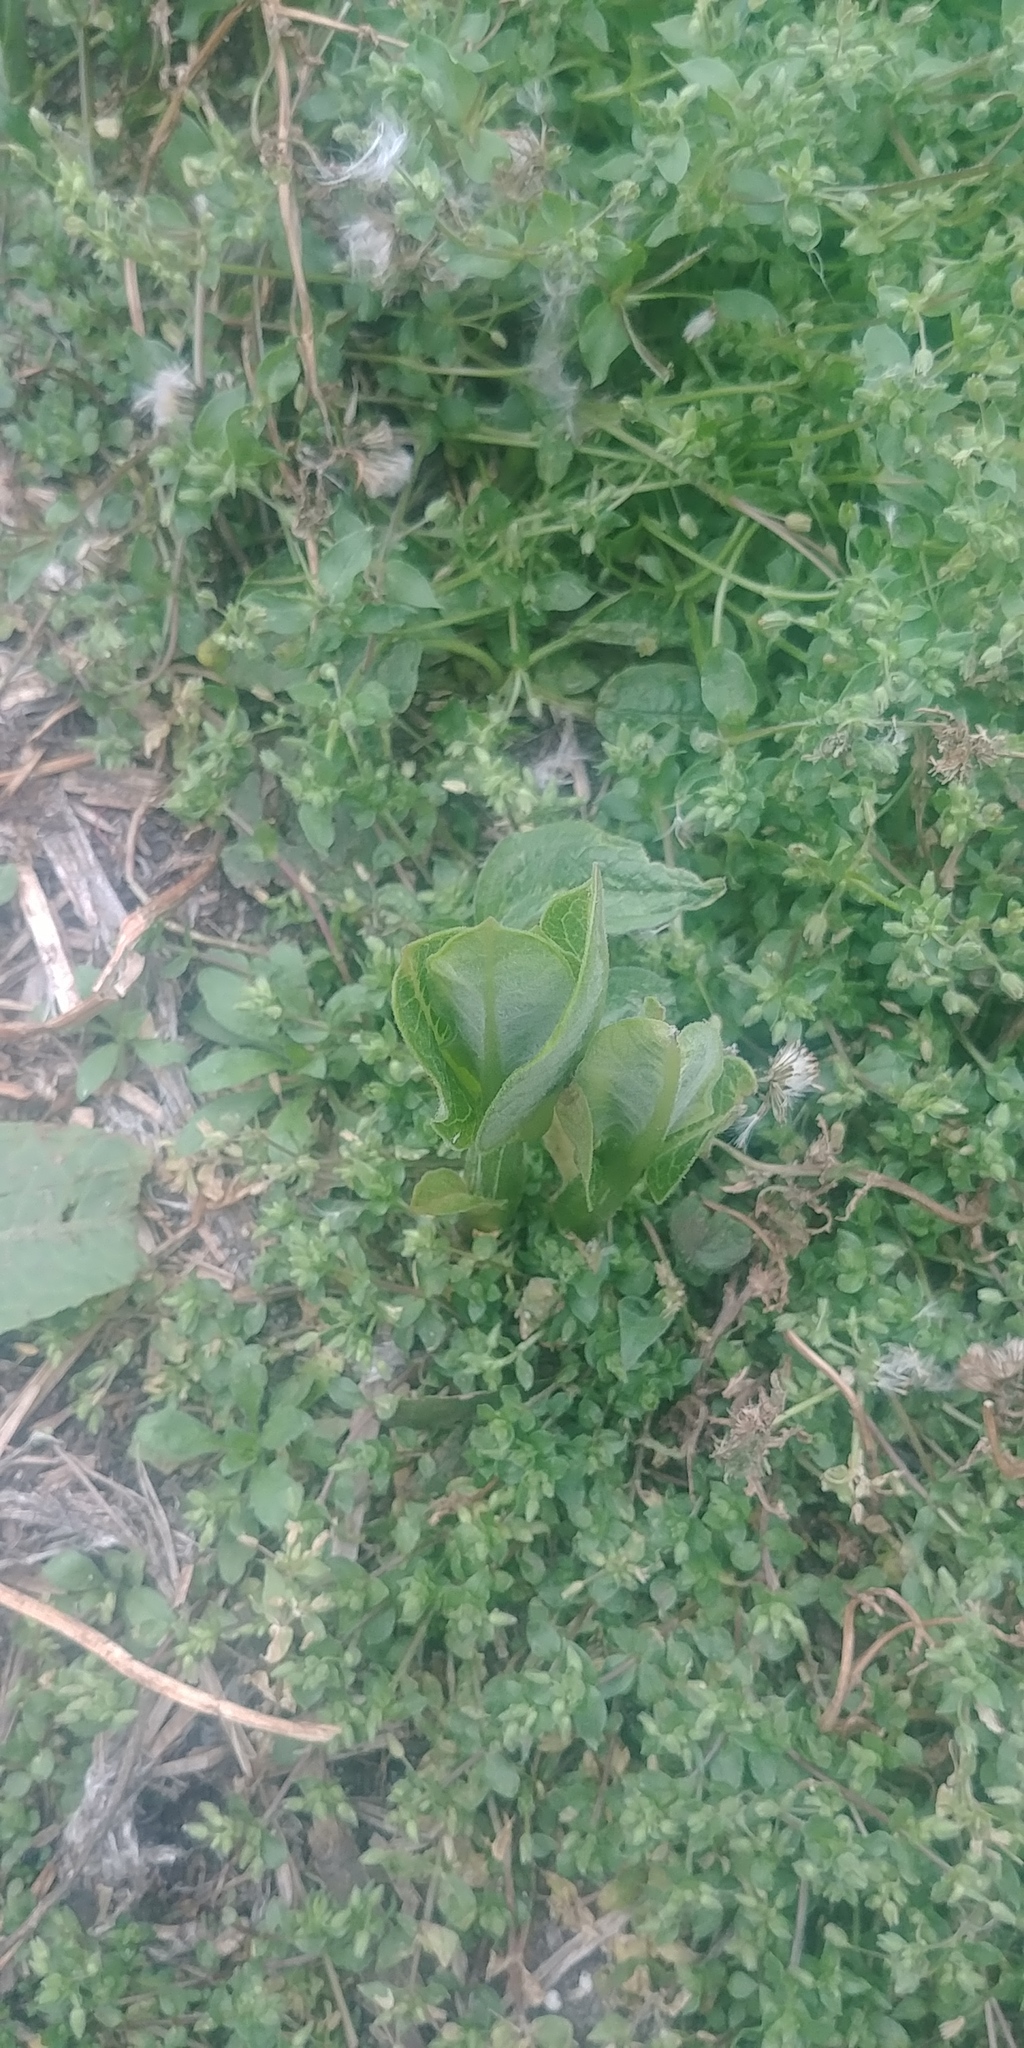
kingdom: Plantae
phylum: Tracheophyta
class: Magnoliopsida
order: Gentianales
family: Apocynaceae
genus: Asclepias
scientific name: Asclepias syriaca
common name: Common milkweed
